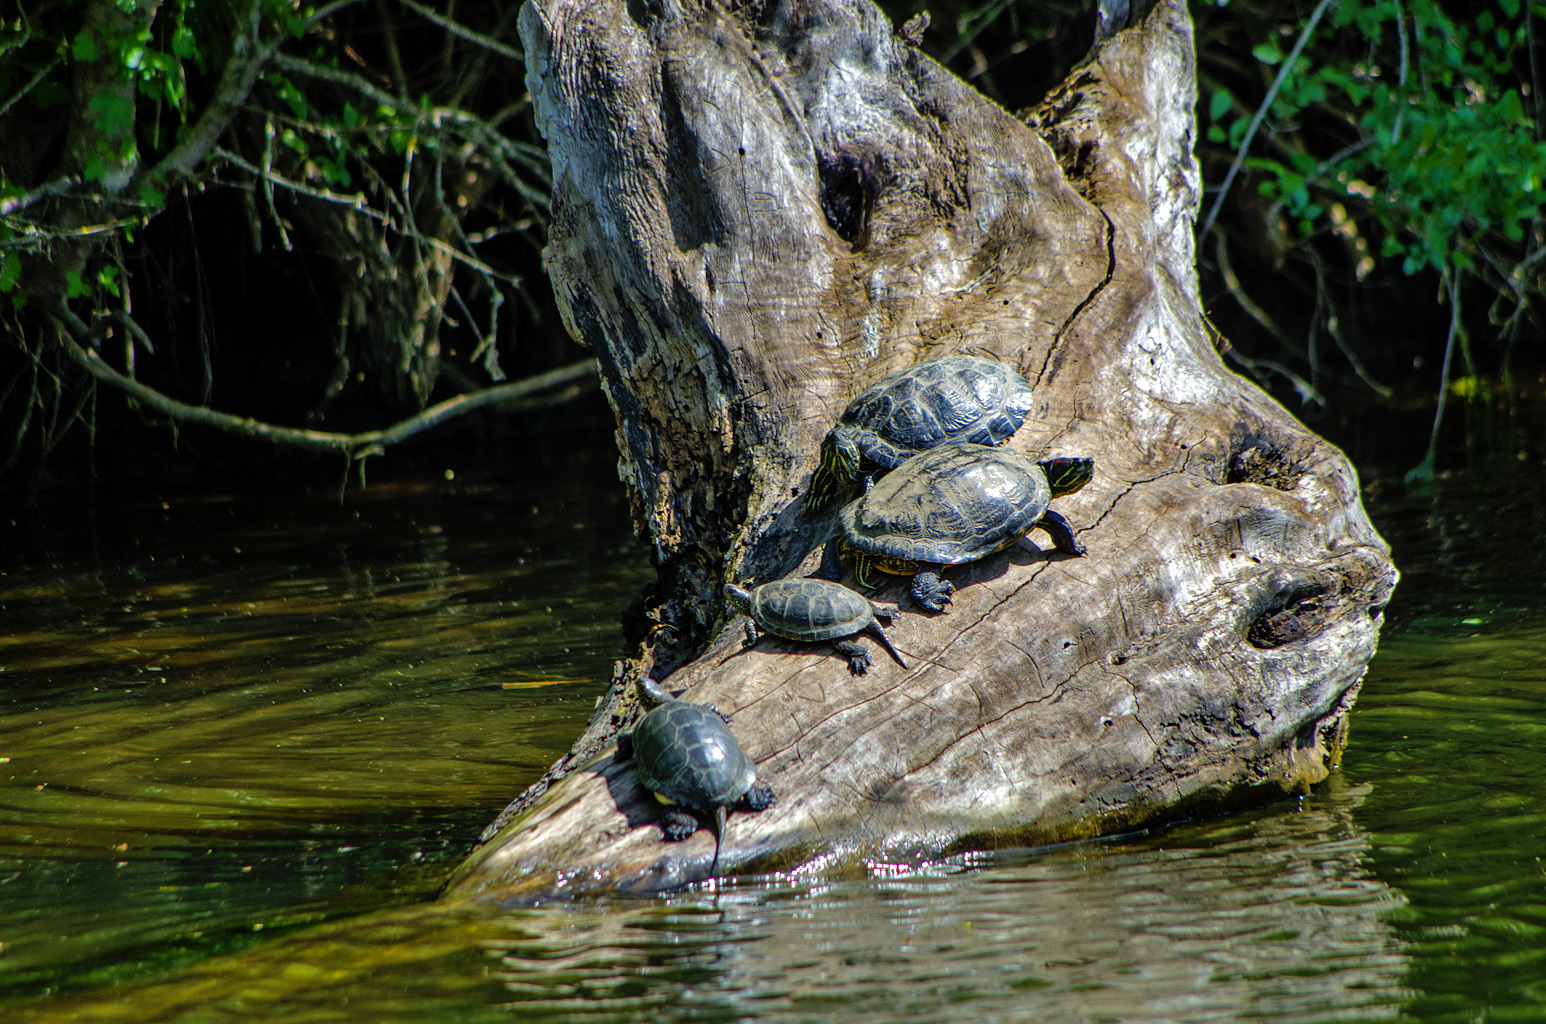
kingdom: Animalia
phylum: Chordata
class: Testudines
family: Emydidae
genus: Trachemys
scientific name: Trachemys scripta
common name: Slider
